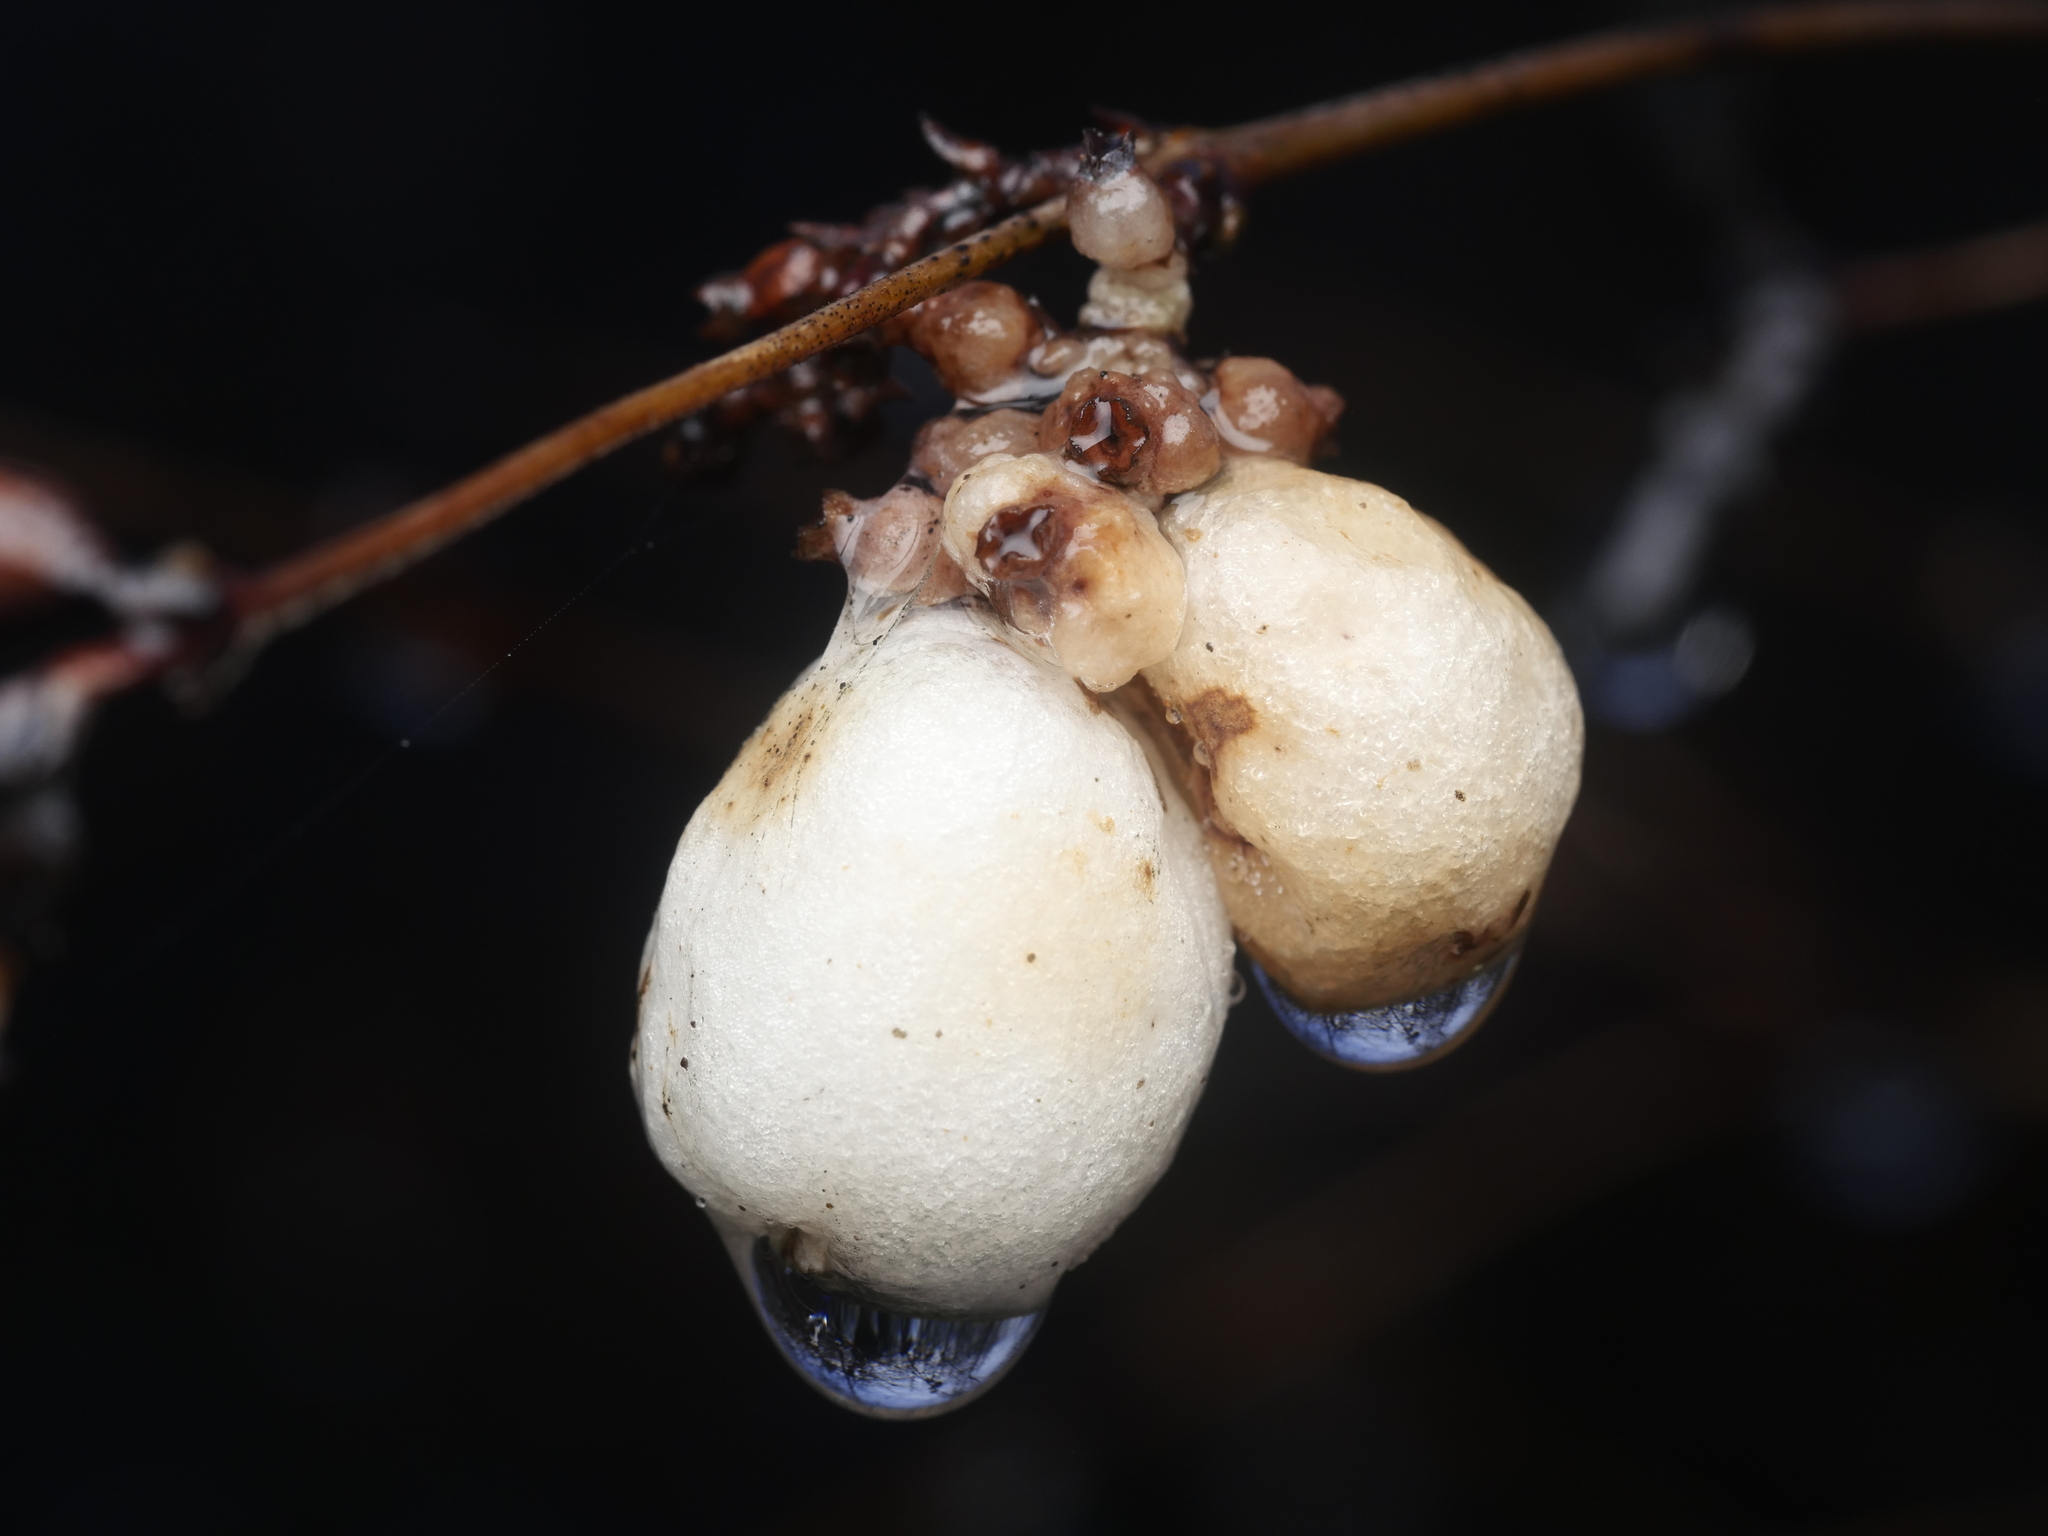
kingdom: Plantae
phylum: Tracheophyta
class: Magnoliopsida
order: Dipsacales
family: Caprifoliaceae
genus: Symphoricarpos
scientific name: Symphoricarpos albus
